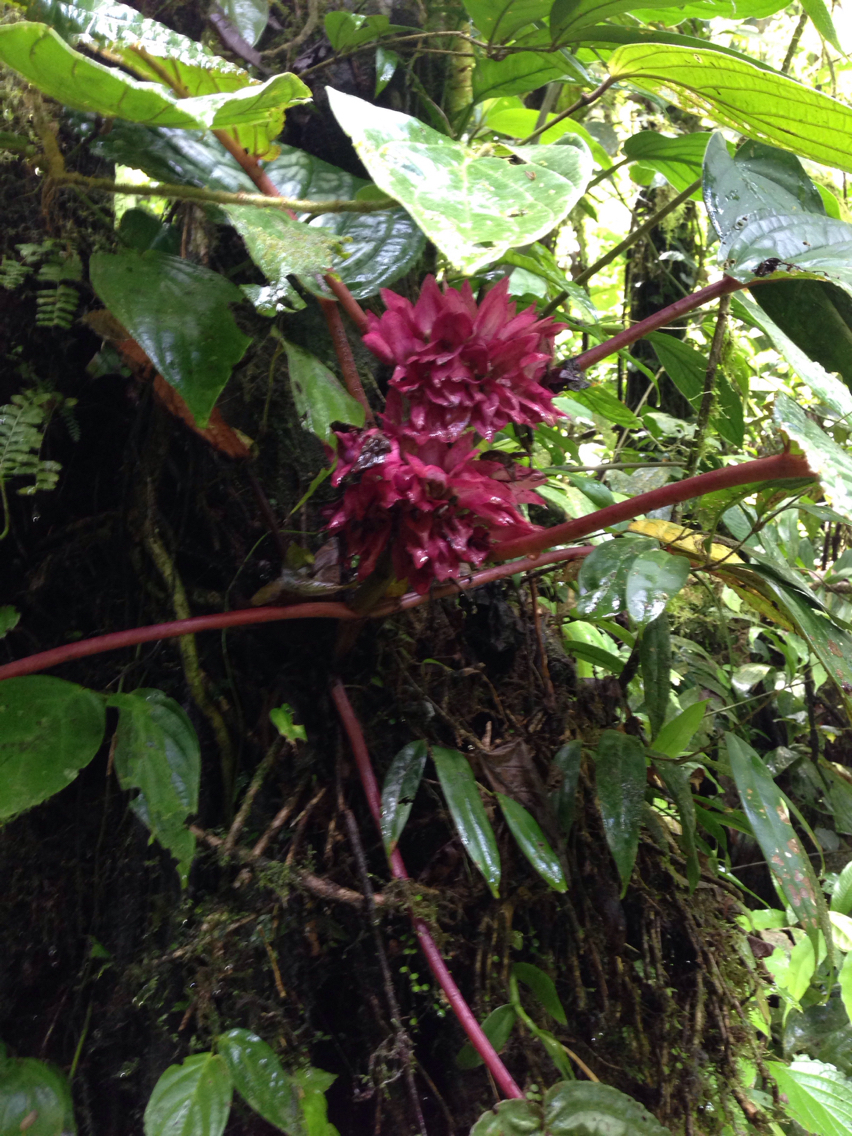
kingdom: Plantae
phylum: Tracheophyta
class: Magnoliopsida
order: Lamiales
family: Gesneriaceae
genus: Drymonia
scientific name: Drymonia turrialvae
